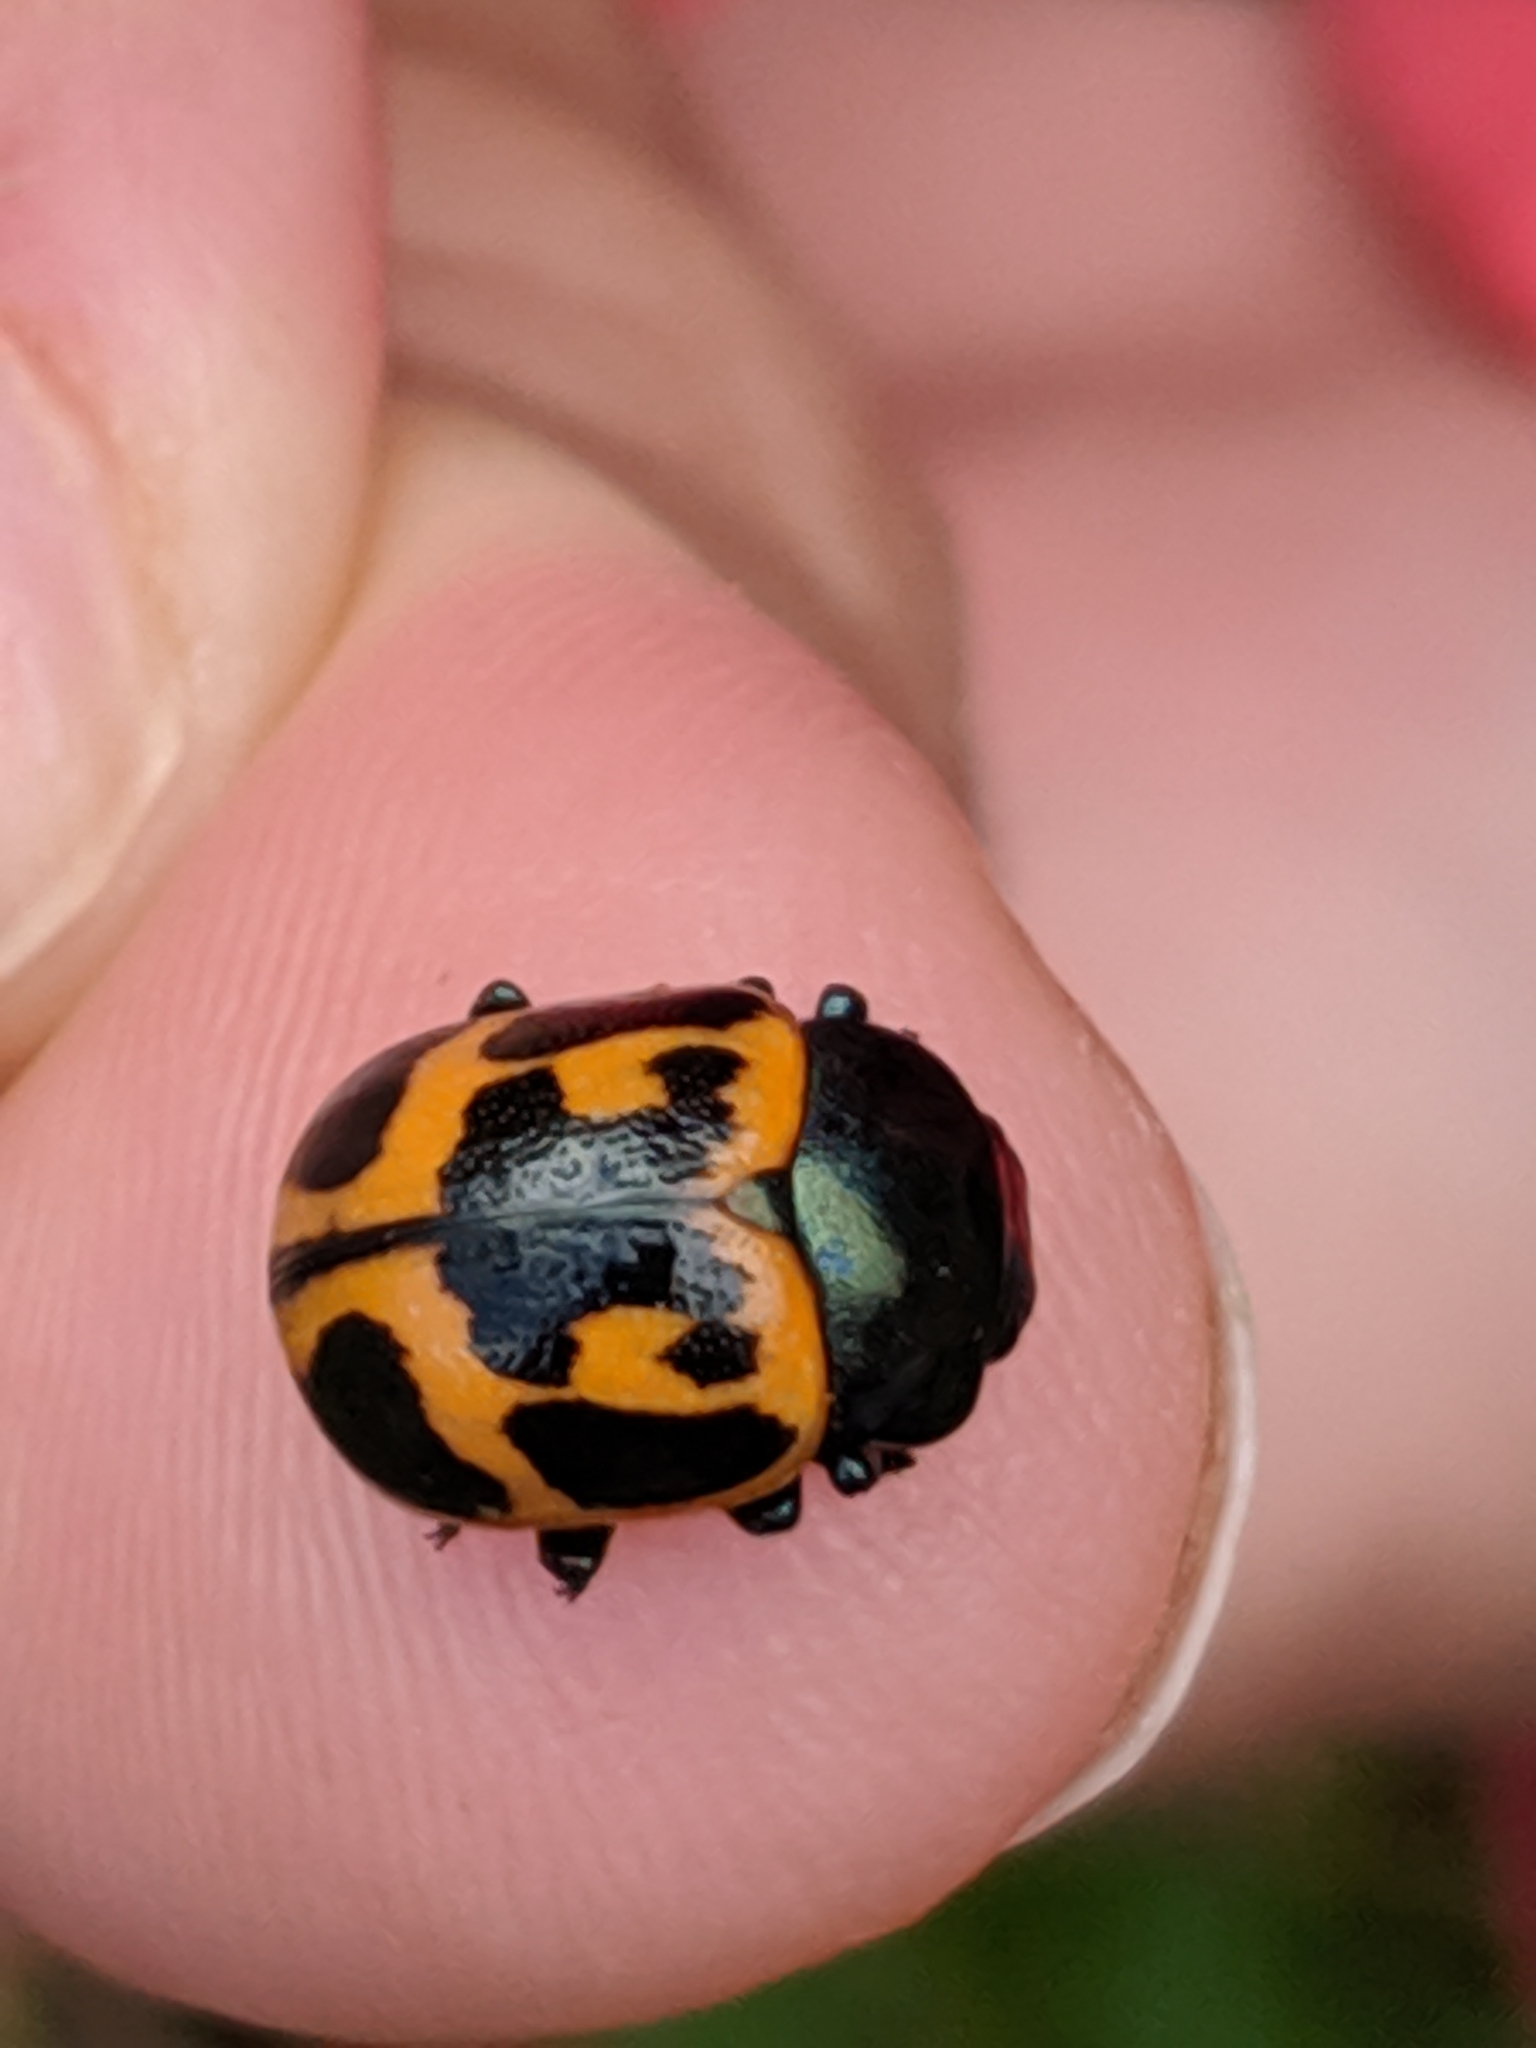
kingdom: Animalia
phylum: Arthropoda
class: Insecta
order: Coleoptera
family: Chrysomelidae
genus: Labidomera
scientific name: Labidomera clivicollis
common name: Swamp milkweed leaf beetle
